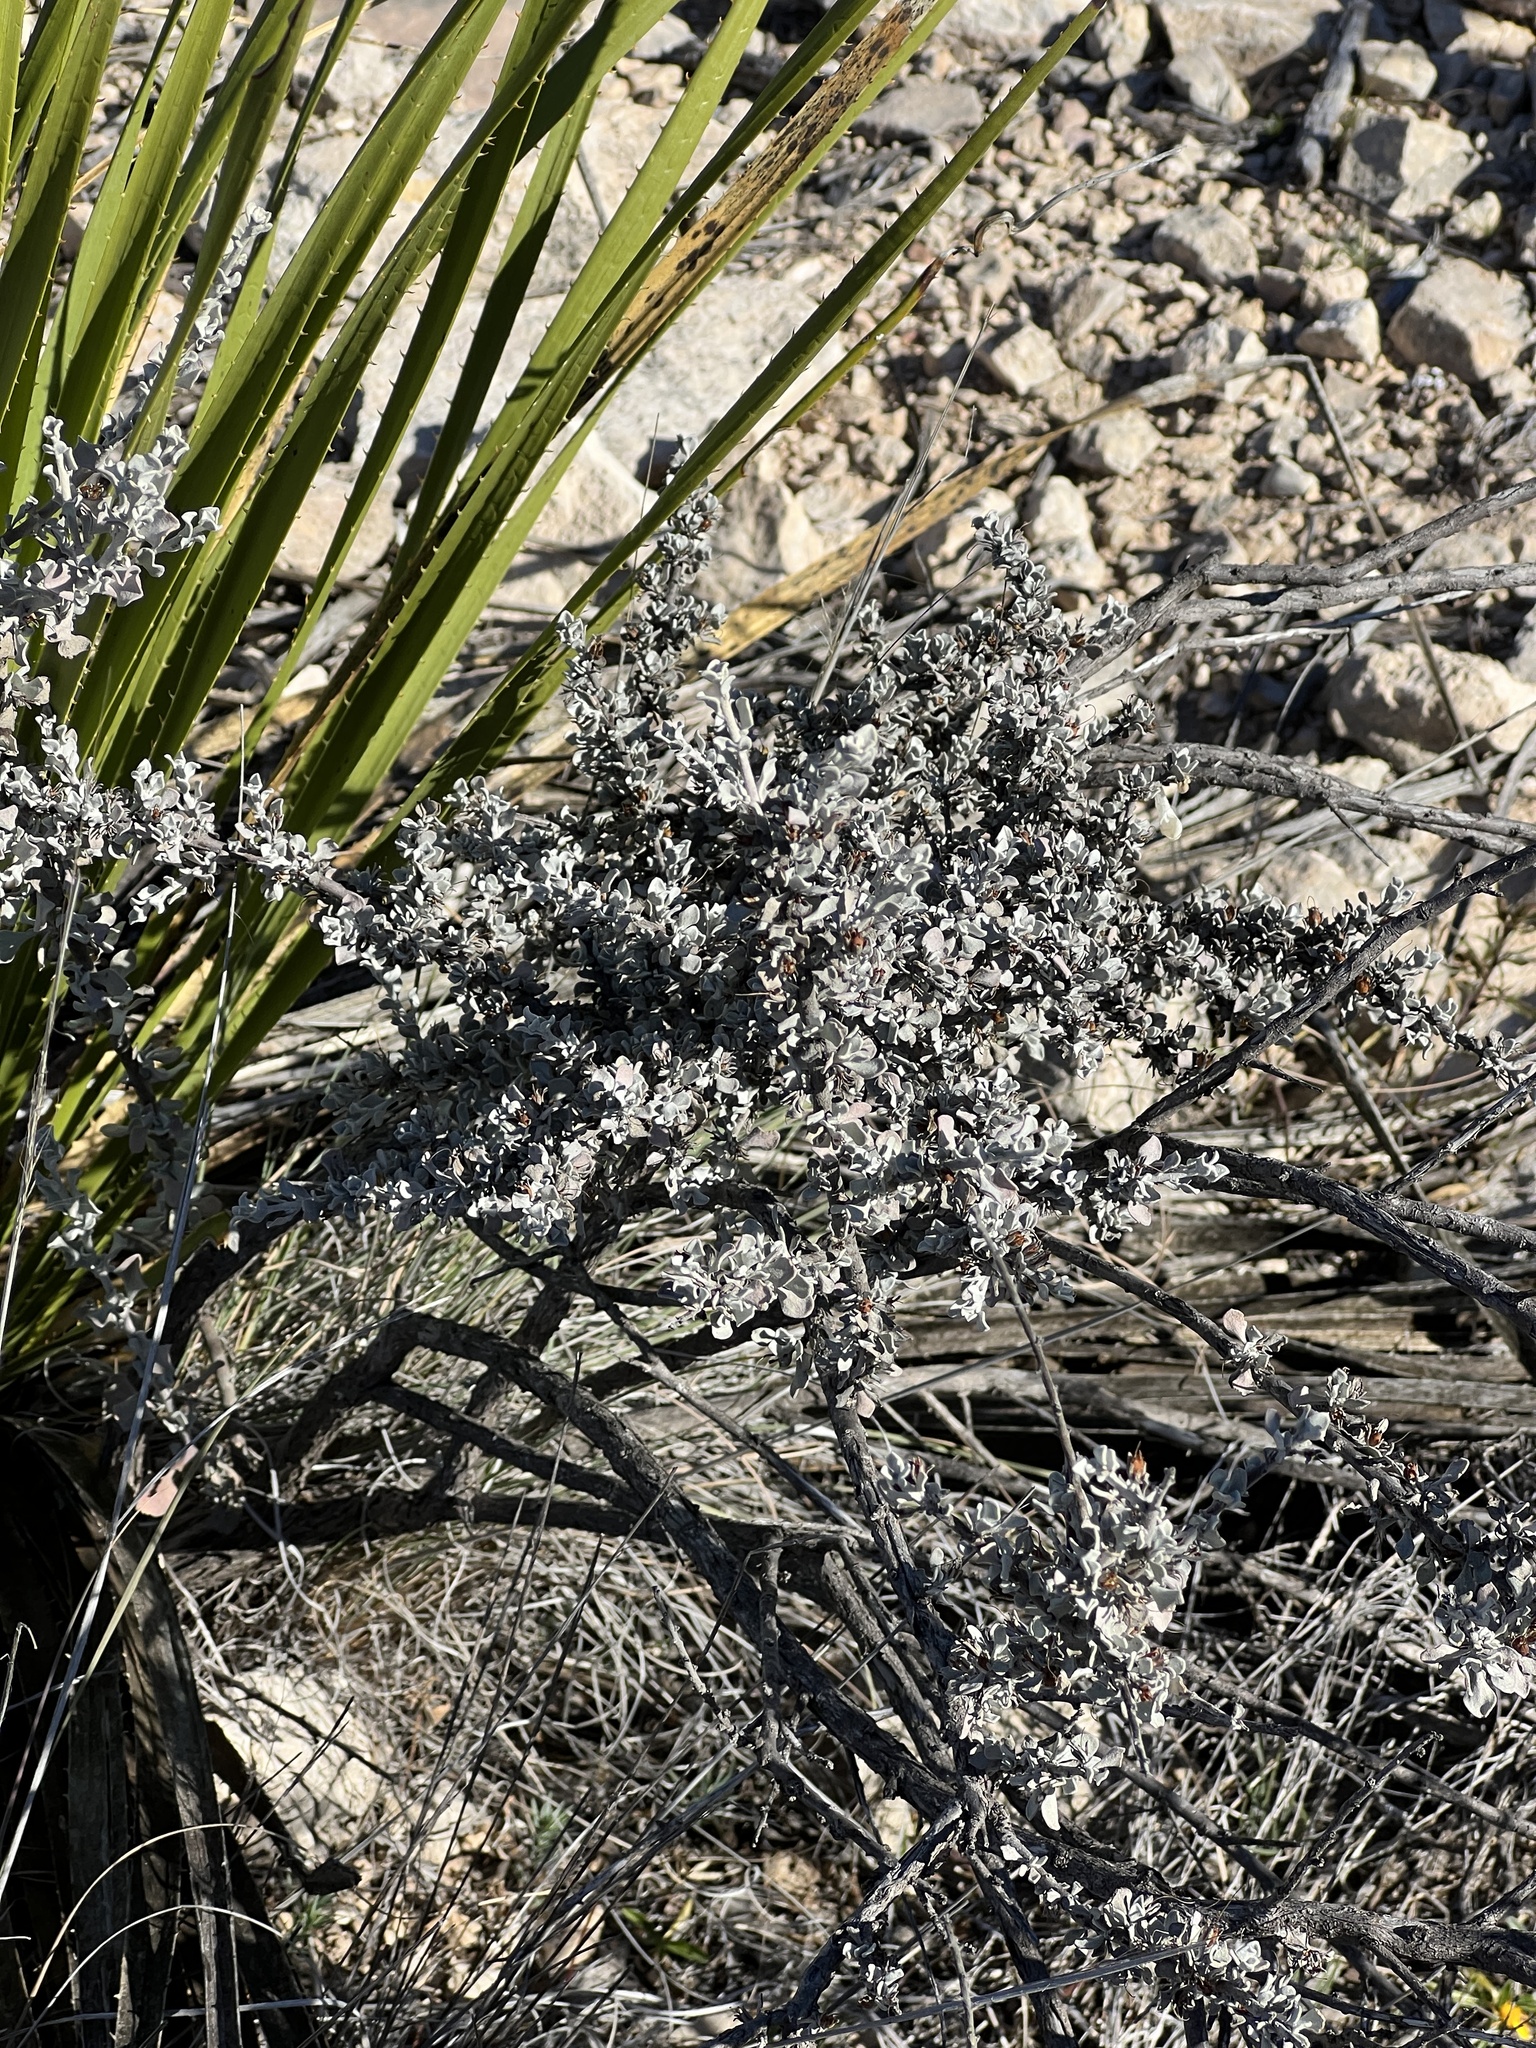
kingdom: Plantae
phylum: Tracheophyta
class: Magnoliopsida
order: Lamiales
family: Scrophulariaceae
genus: Leucophyllum
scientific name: Leucophyllum minus
